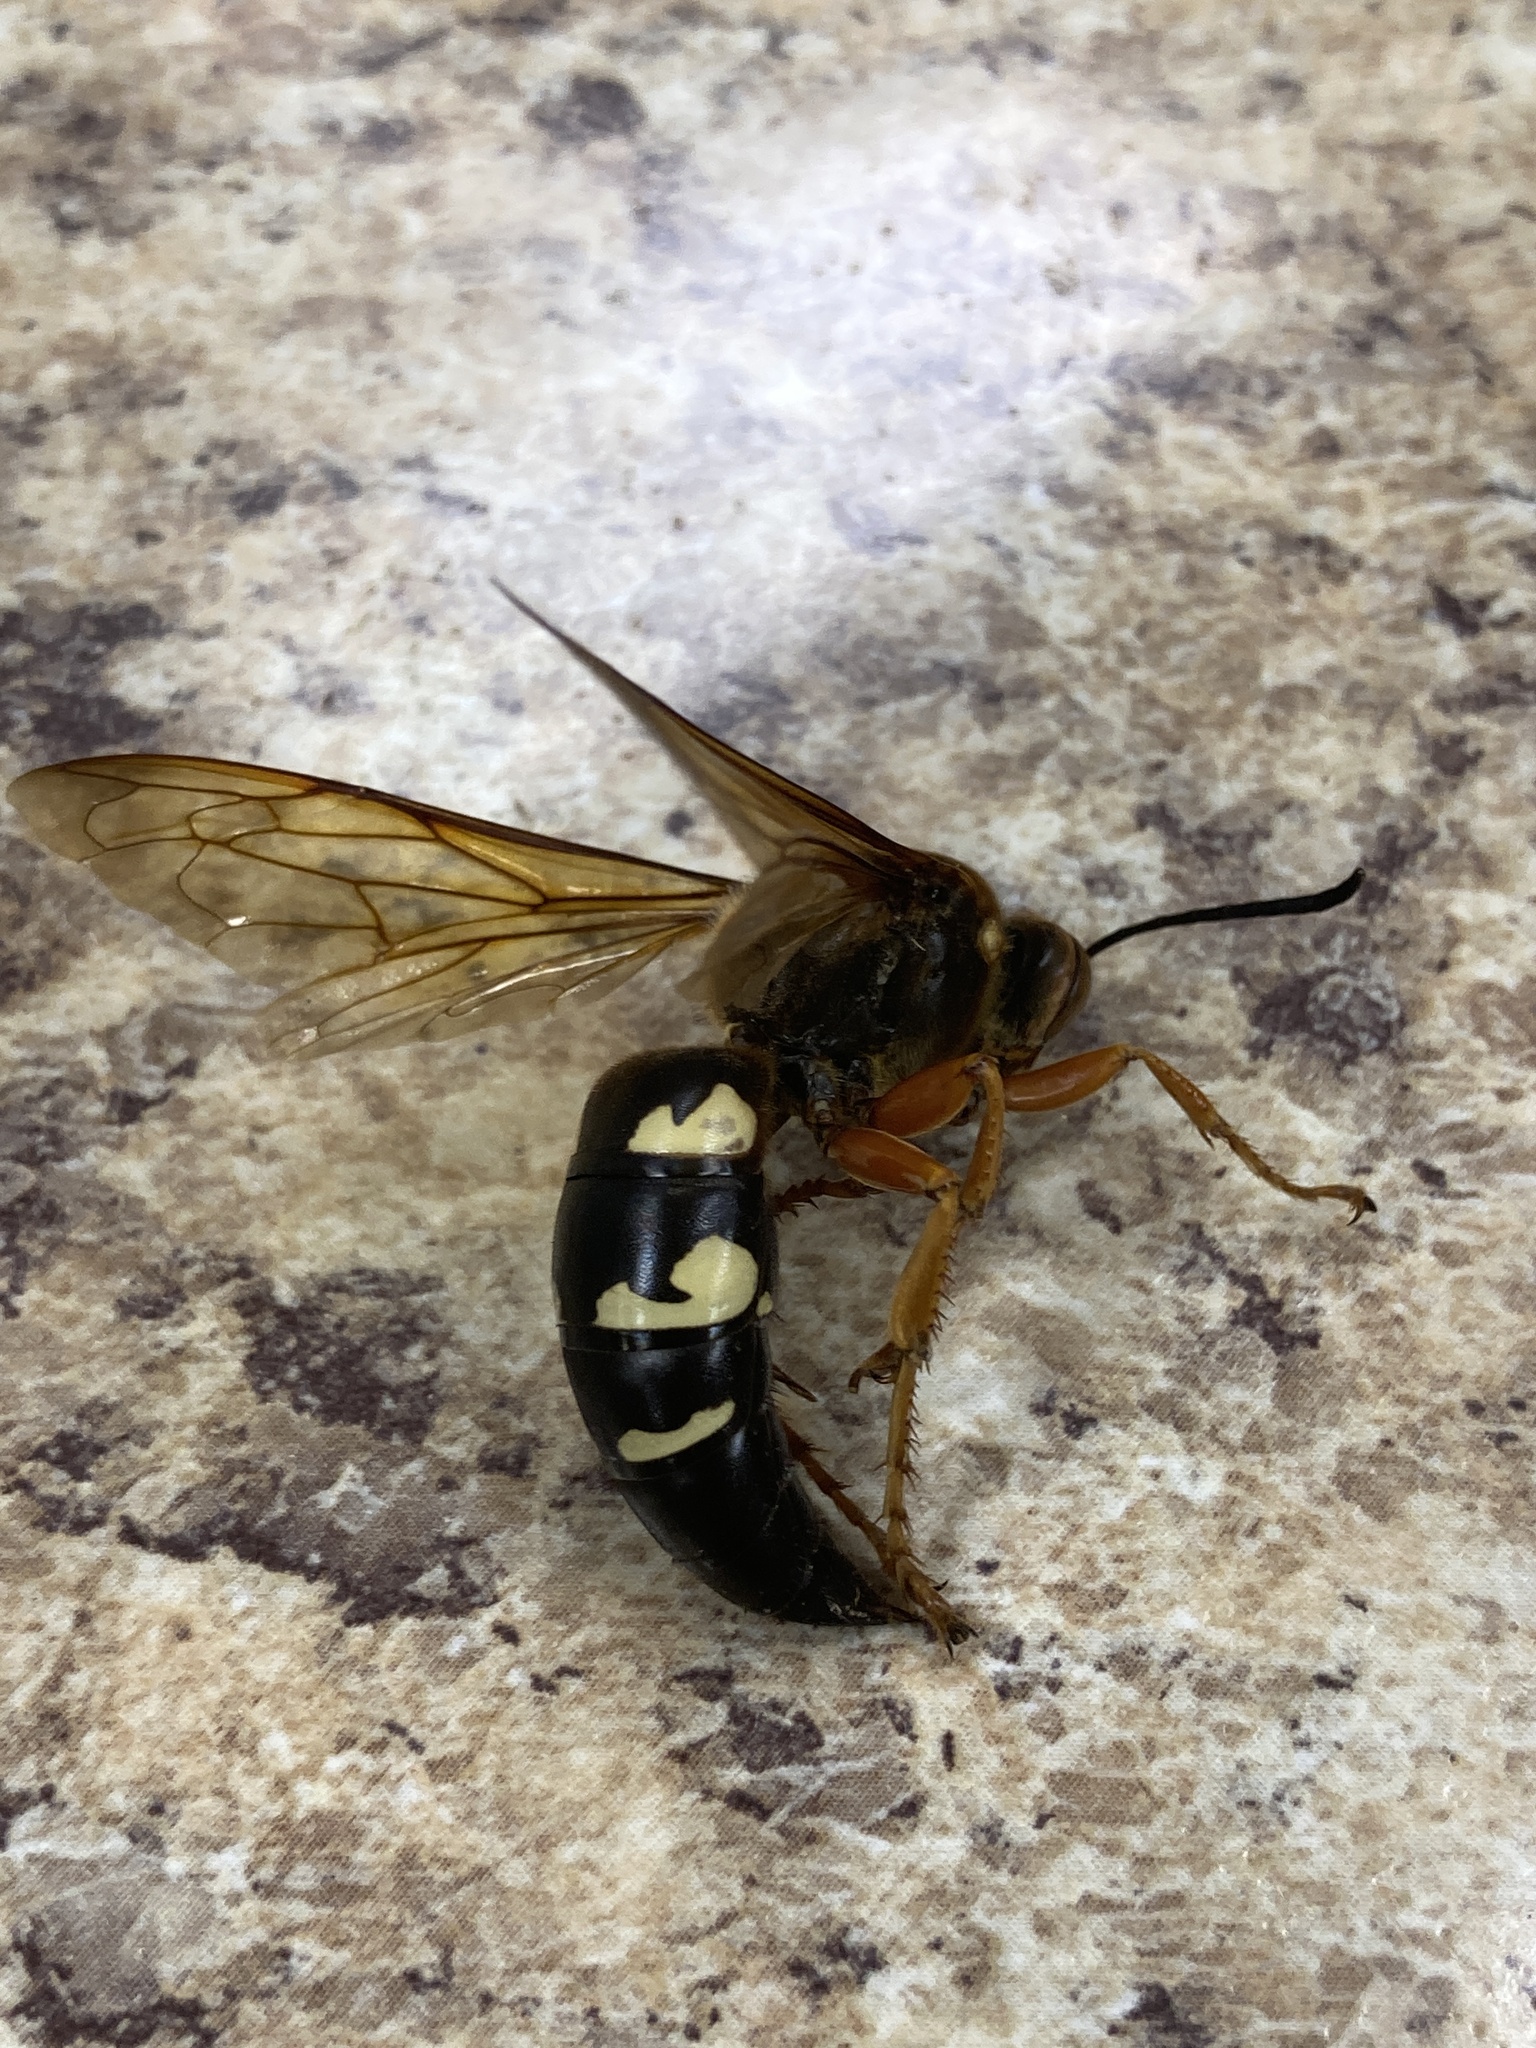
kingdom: Animalia
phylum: Arthropoda
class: Insecta
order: Hymenoptera
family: Crabronidae
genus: Sphecius
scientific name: Sphecius speciosus
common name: Cicada killer
